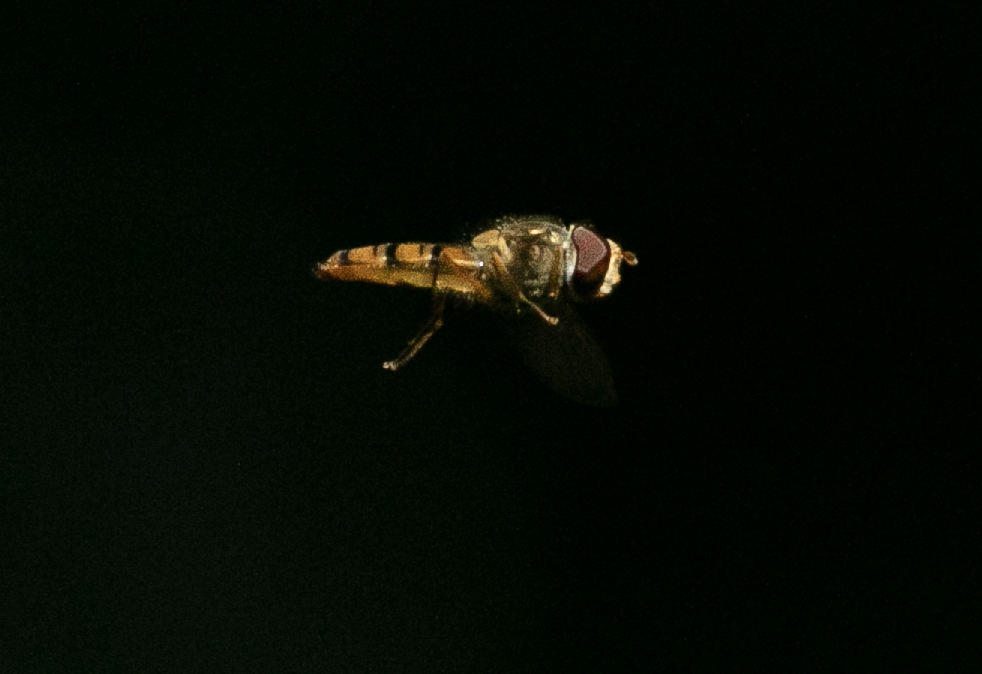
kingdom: Animalia
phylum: Arthropoda
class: Insecta
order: Diptera
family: Syrphidae
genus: Episyrphus
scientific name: Episyrphus balteatus
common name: Marmalade hoverfly
